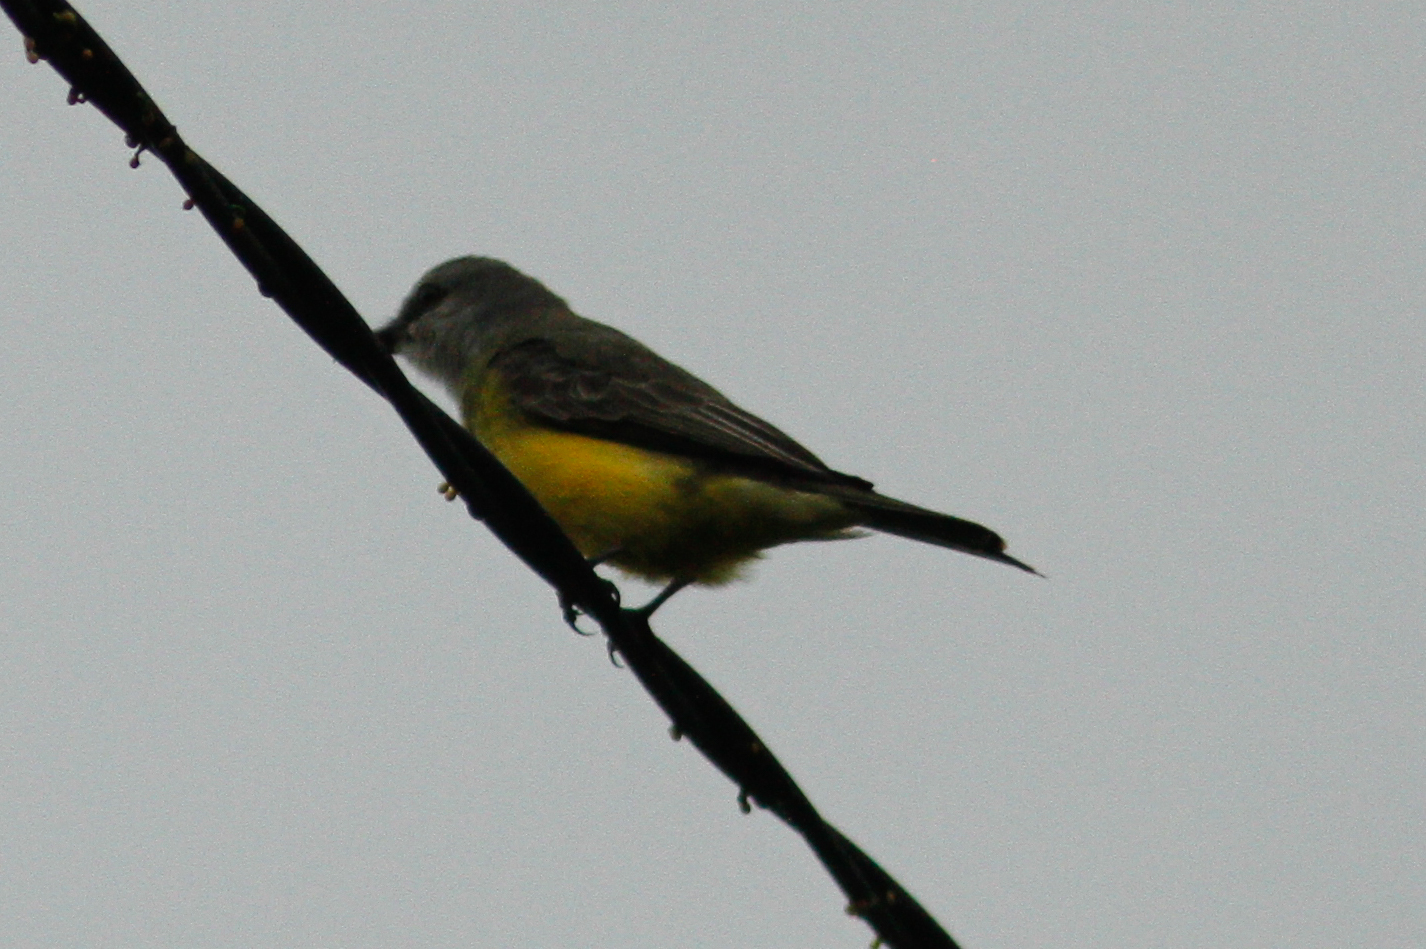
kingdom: Animalia
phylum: Chordata
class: Aves
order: Passeriformes
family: Tyrannidae
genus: Tyrannus
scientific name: Tyrannus melancholicus
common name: Tropical kingbird
